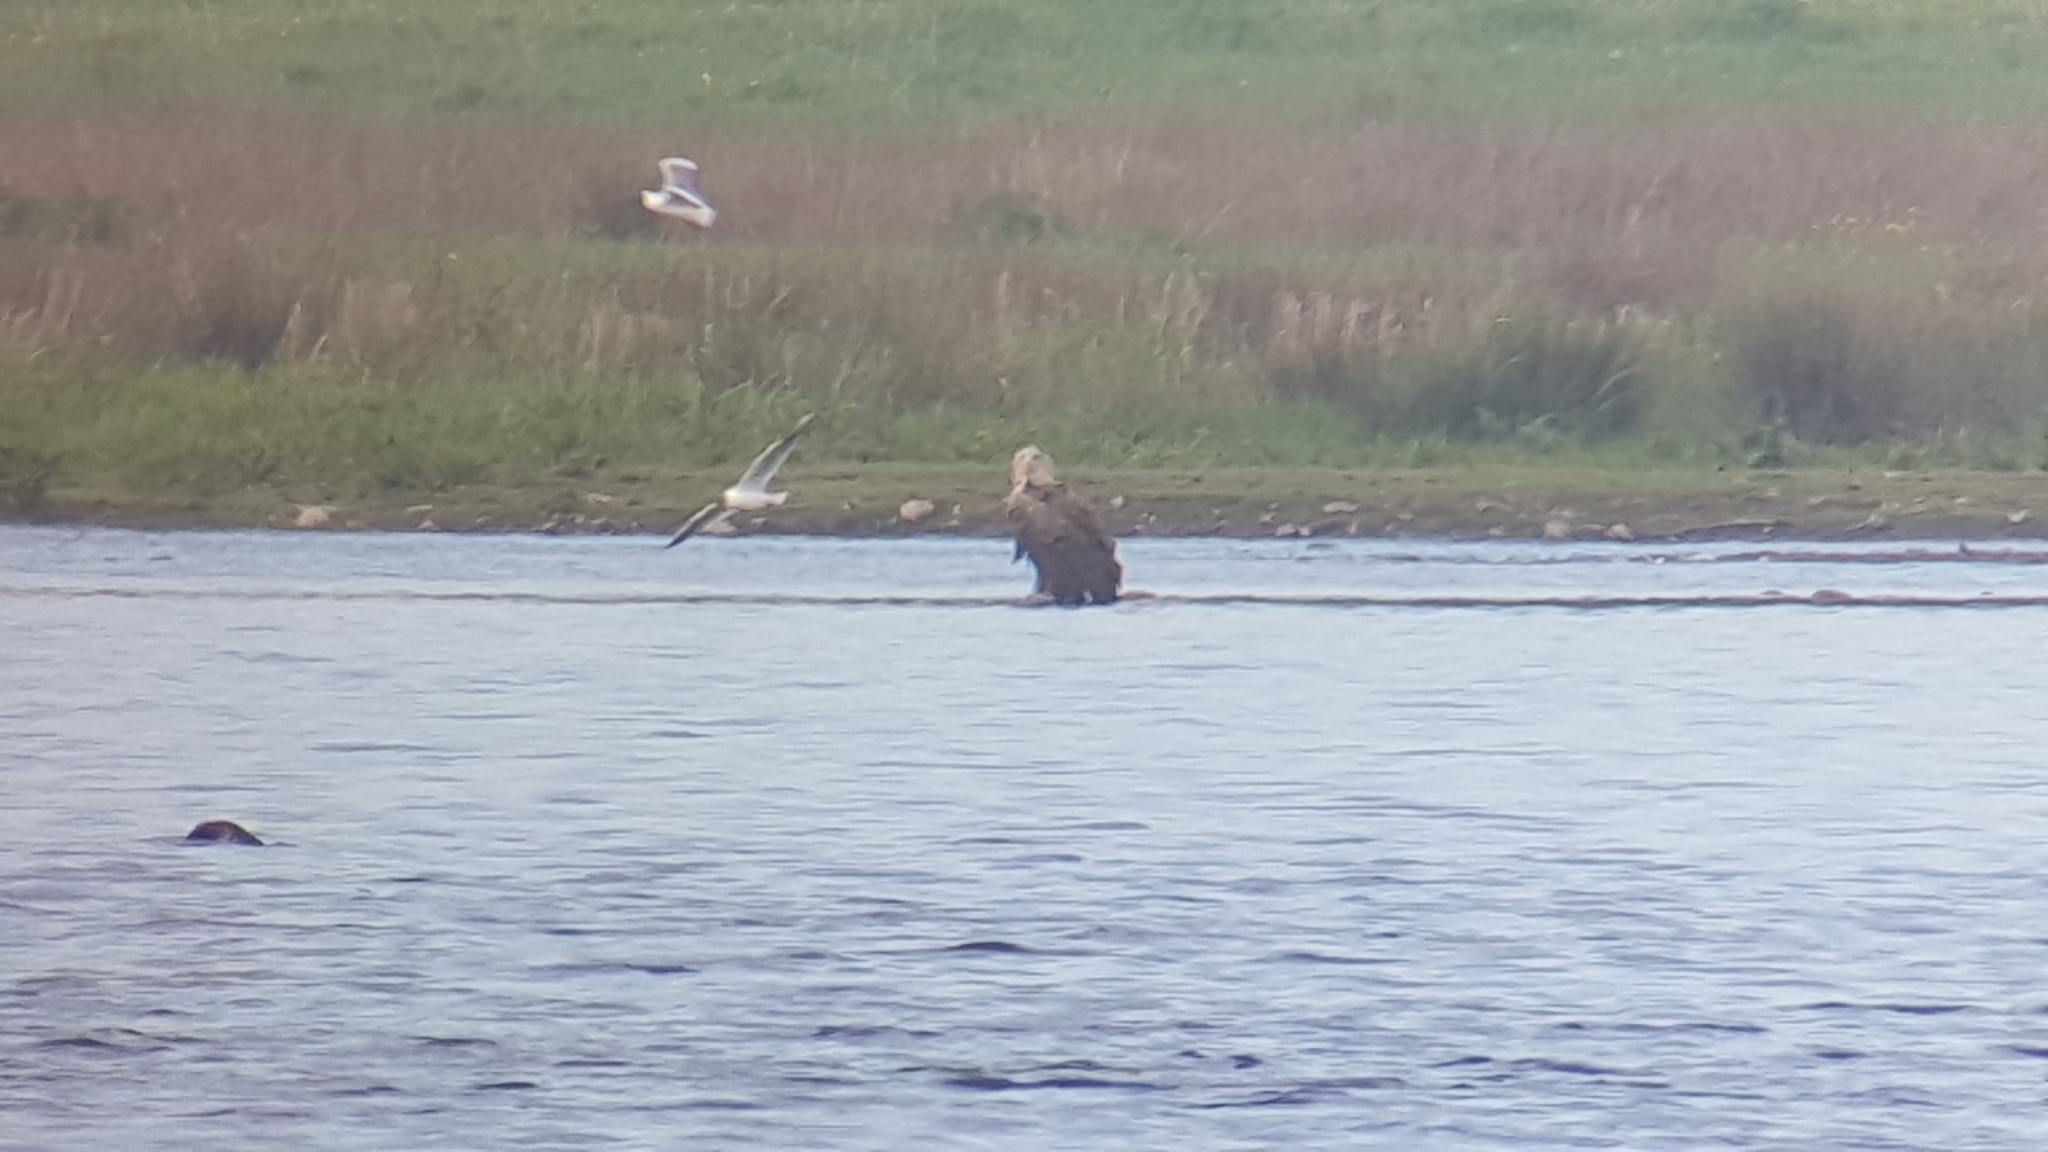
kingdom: Animalia
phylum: Chordata
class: Aves
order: Accipitriformes
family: Accipitridae
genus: Haliaeetus
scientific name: Haliaeetus albicilla
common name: White-tailed eagle
